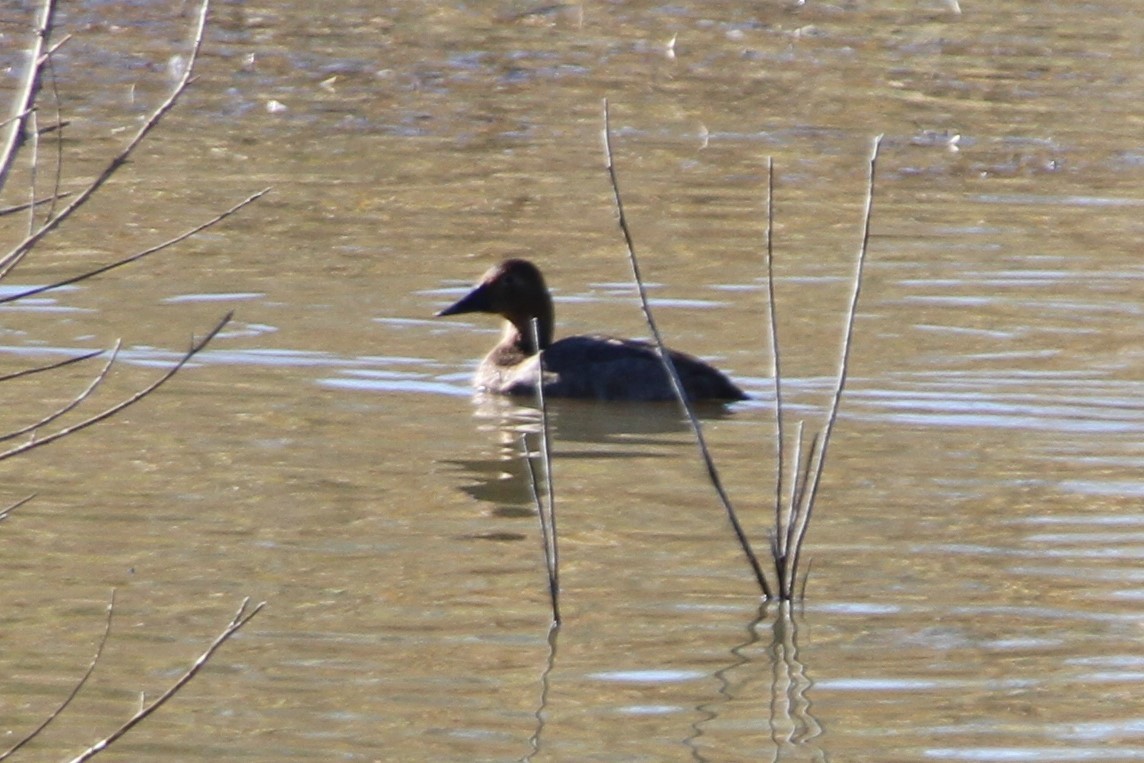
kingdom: Animalia
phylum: Chordata
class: Aves
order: Anseriformes
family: Anatidae
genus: Aythya
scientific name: Aythya valisineria
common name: Canvasback
